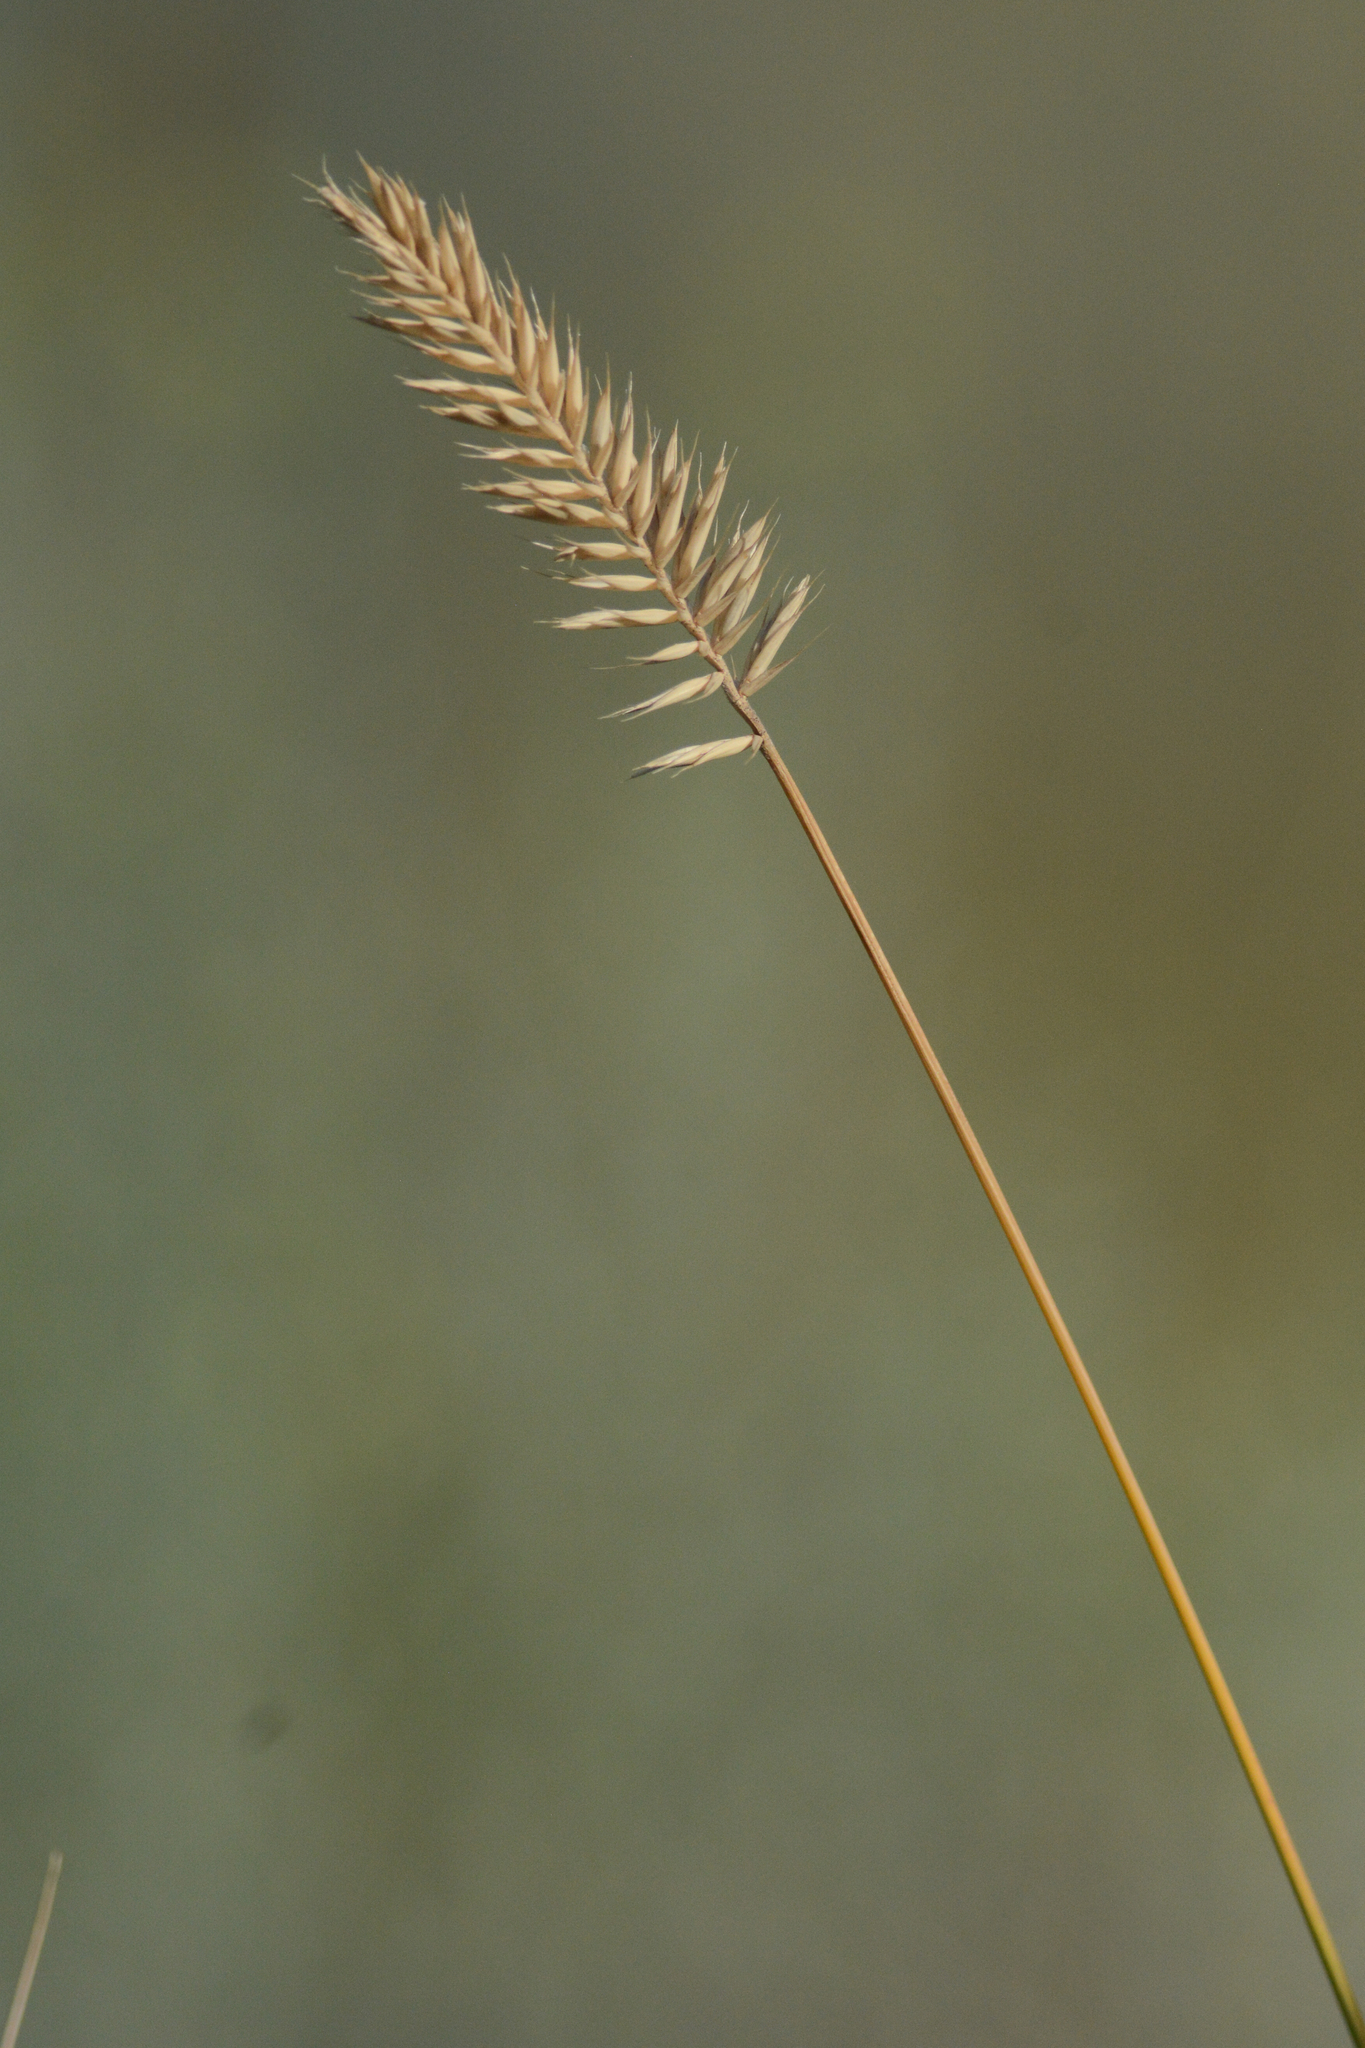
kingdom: Plantae
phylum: Tracheophyta
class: Liliopsida
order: Poales
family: Poaceae
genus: Agropyron
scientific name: Agropyron cristatum
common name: Crested wheatgrass
